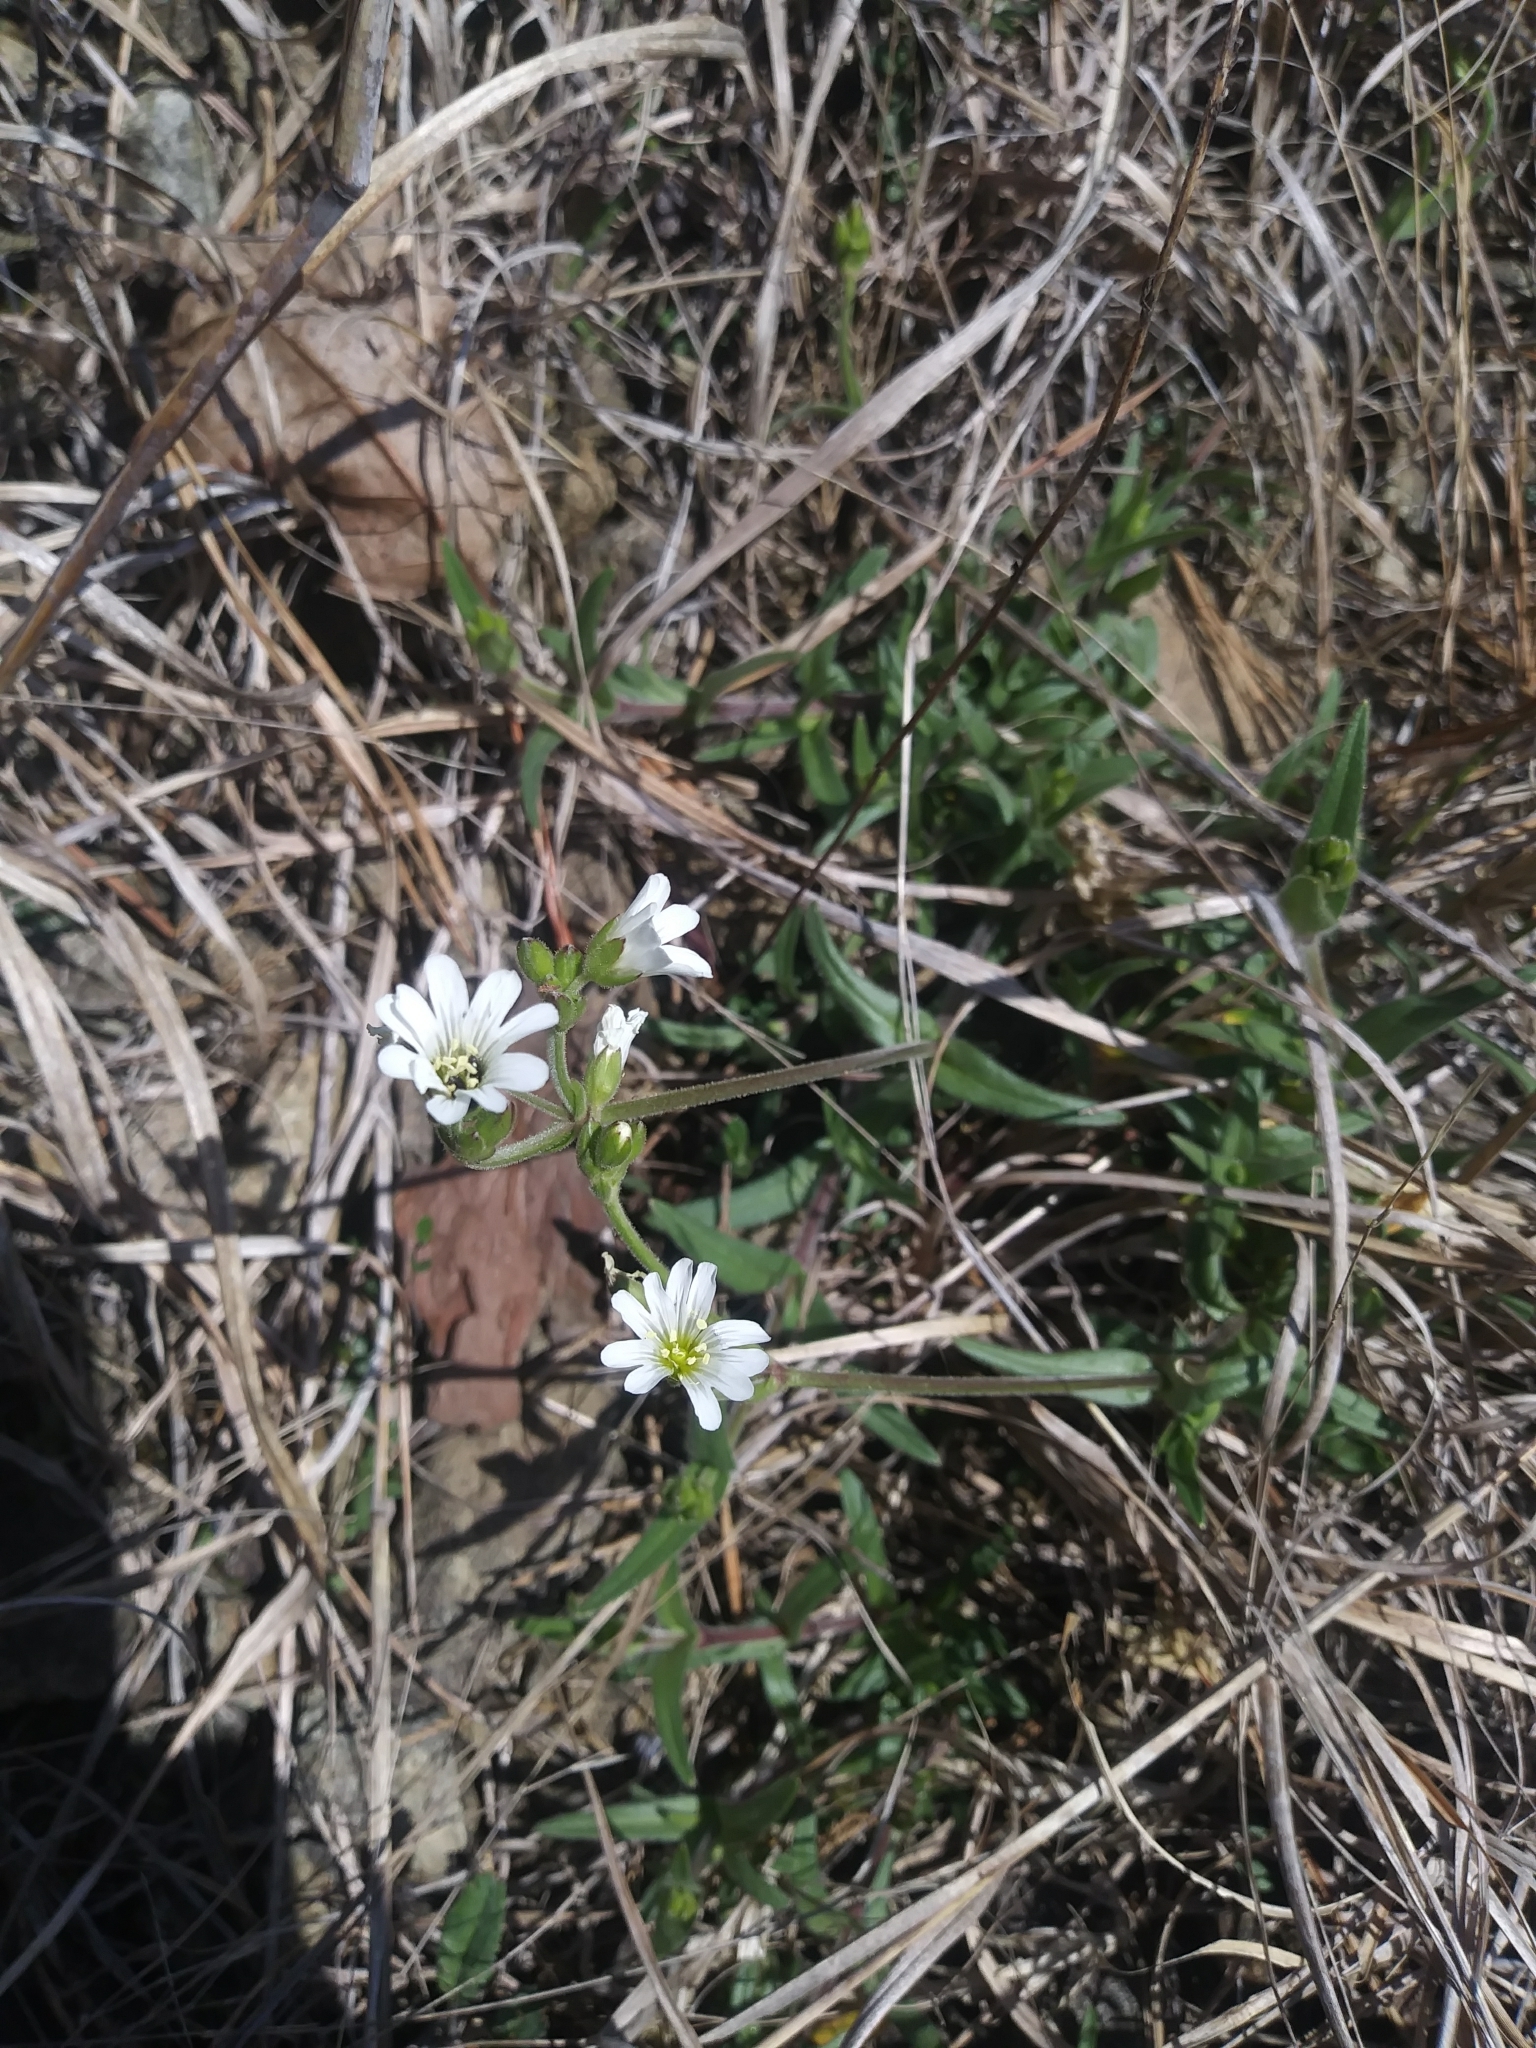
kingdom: Plantae
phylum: Tracheophyta
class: Magnoliopsida
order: Caryophyllales
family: Caryophyllaceae
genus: Cerastium
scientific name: Cerastium velutinum
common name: Barren chickweed
